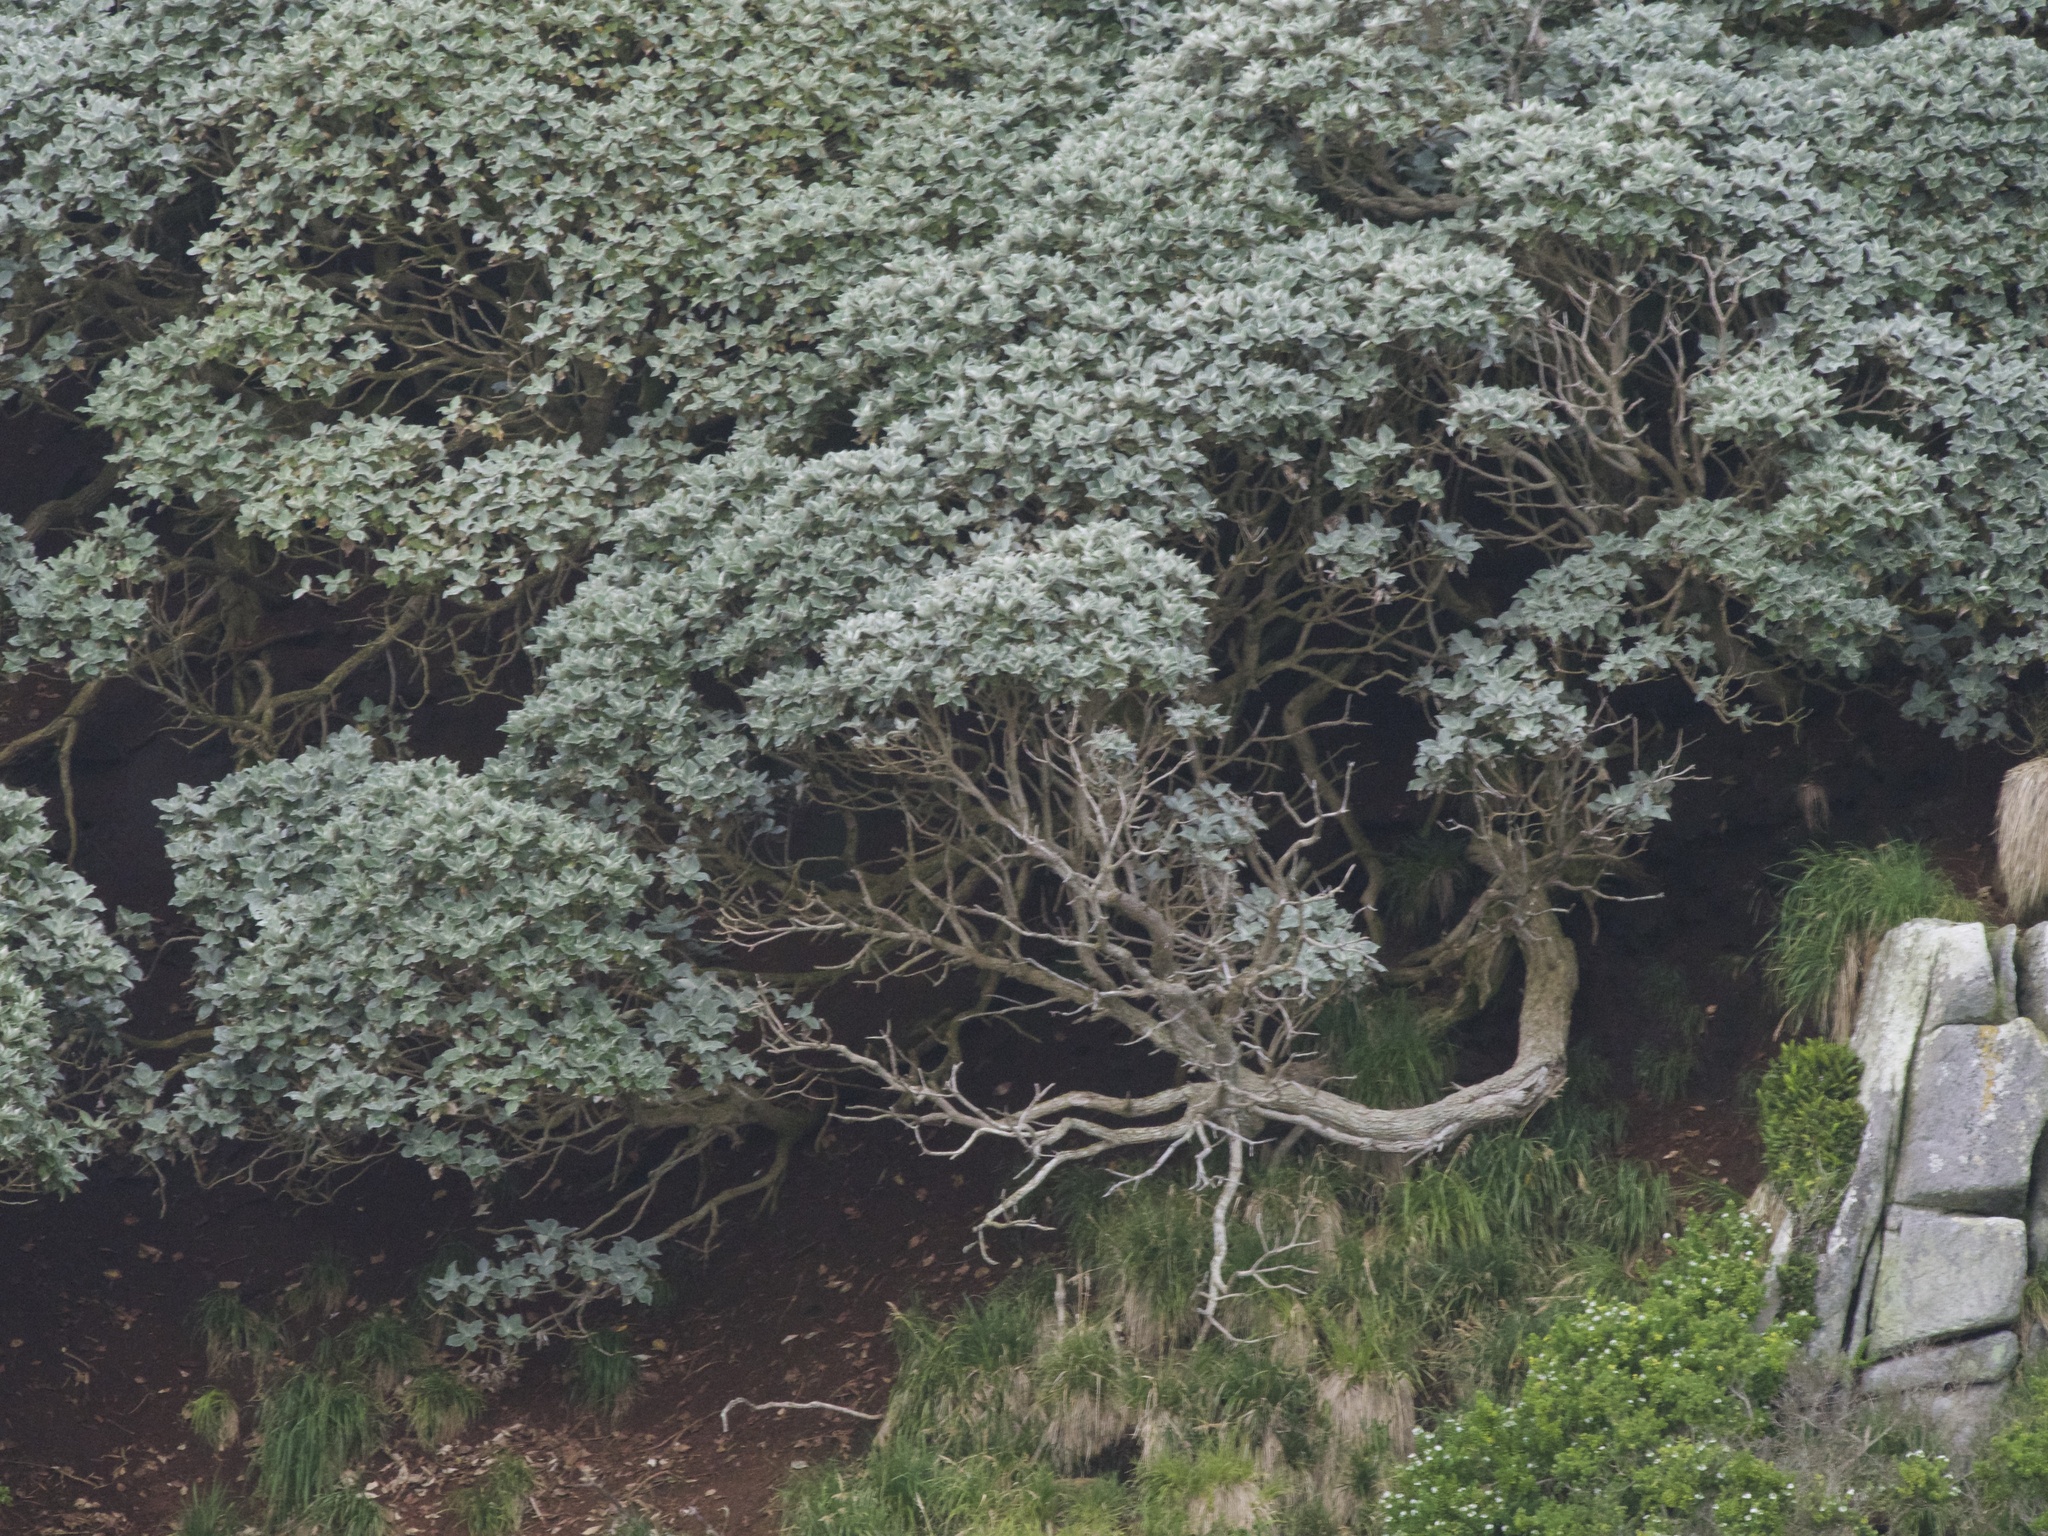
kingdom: Plantae
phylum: Tracheophyta
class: Magnoliopsida
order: Asterales
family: Asteraceae
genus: Macrolearia
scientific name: Macrolearia lyallii
